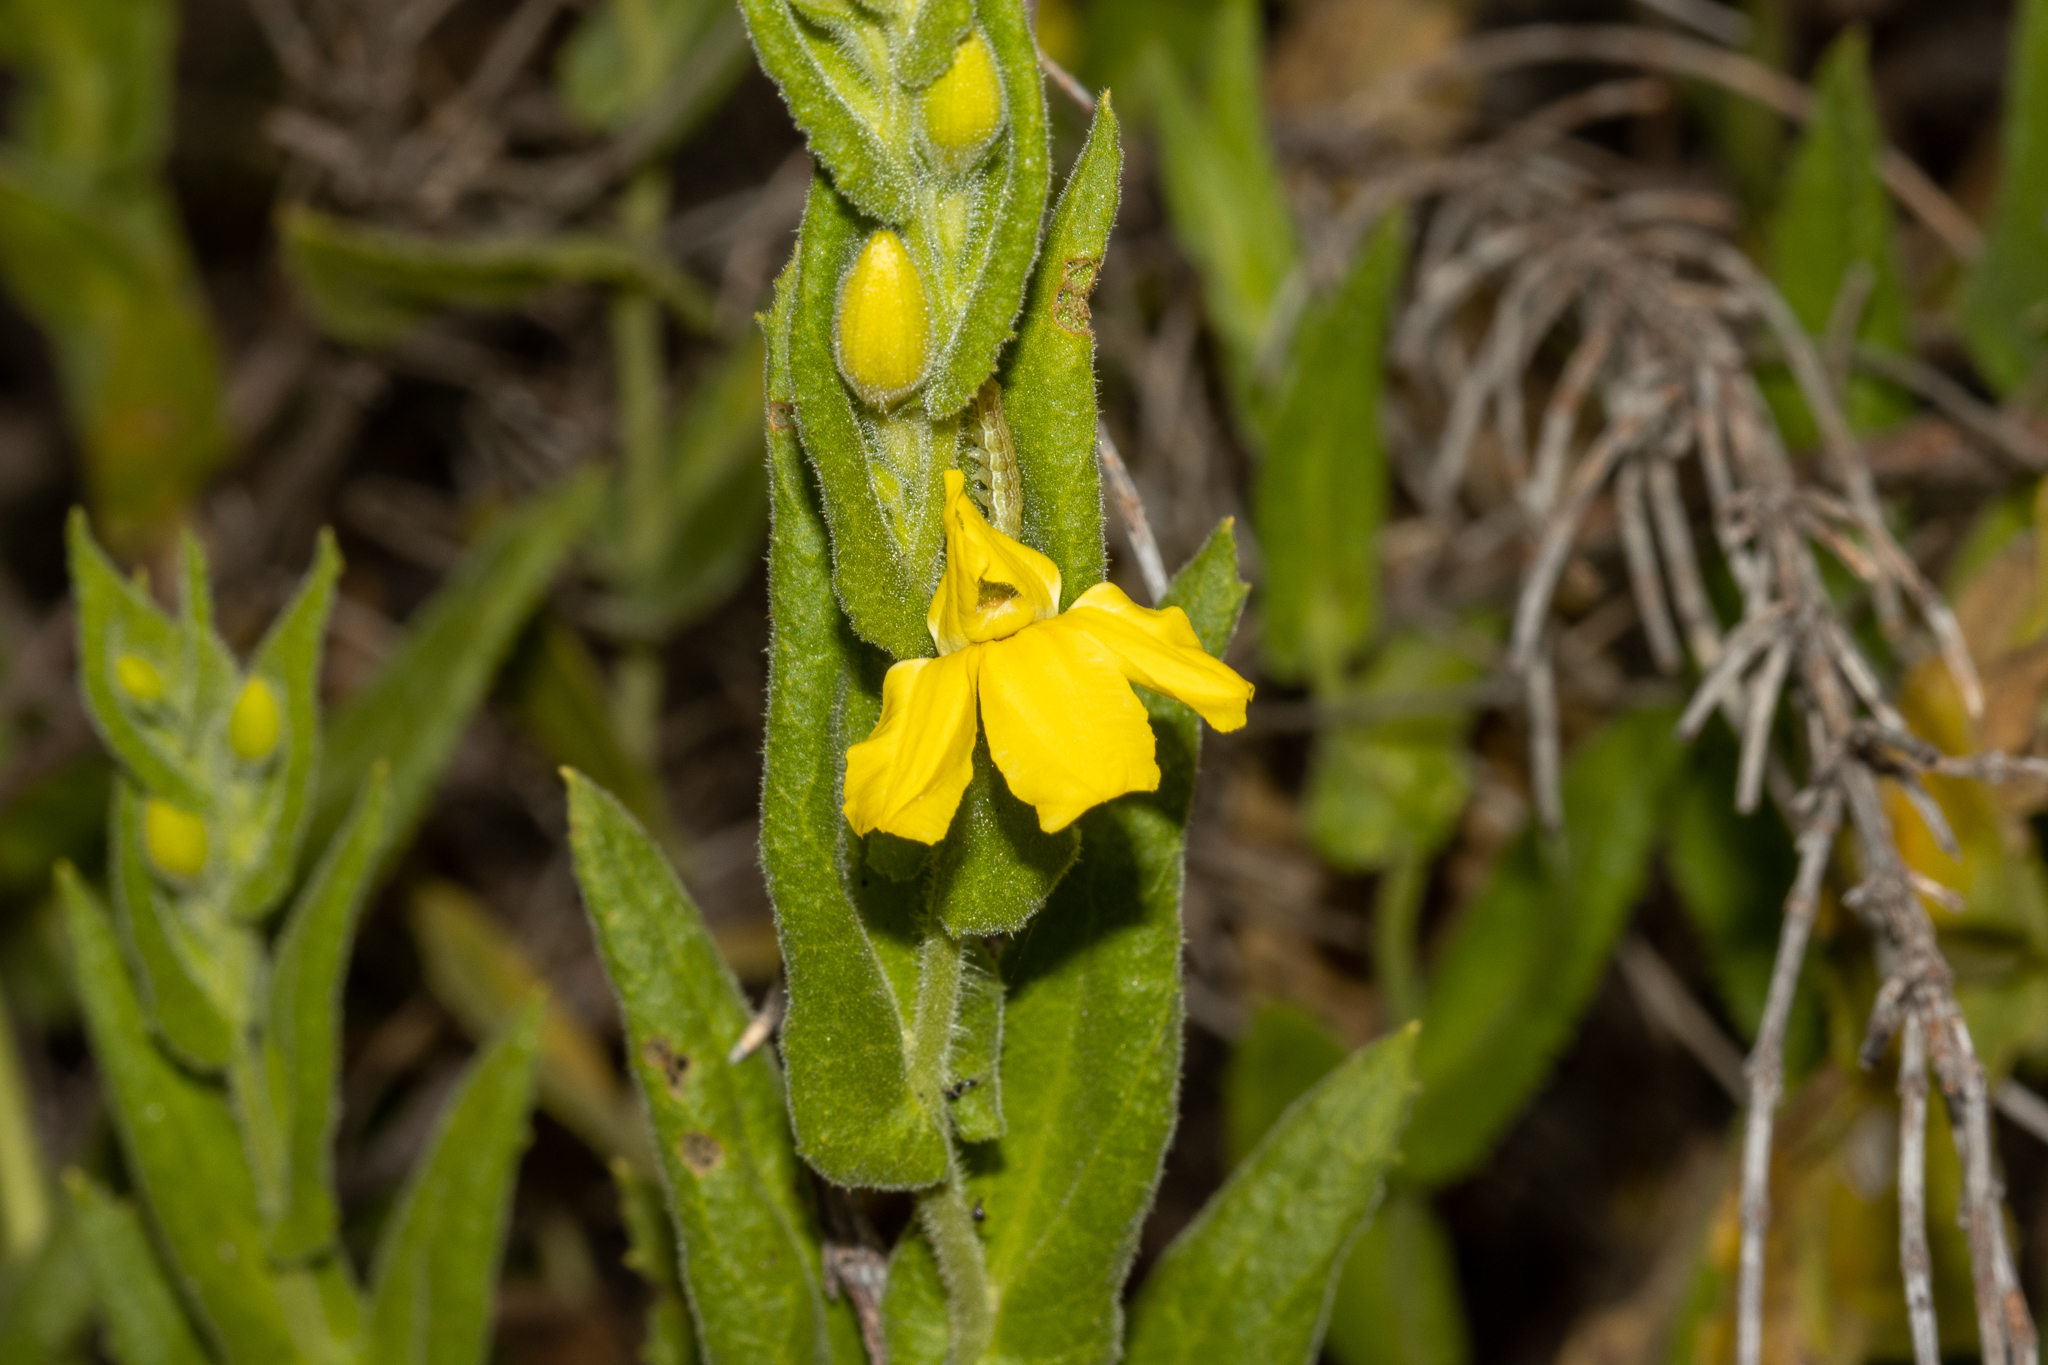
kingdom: Plantae
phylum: Tracheophyta
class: Magnoliopsida
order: Asterales
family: Goodeniaceae
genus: Goodenia
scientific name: Goodenia amplexans
